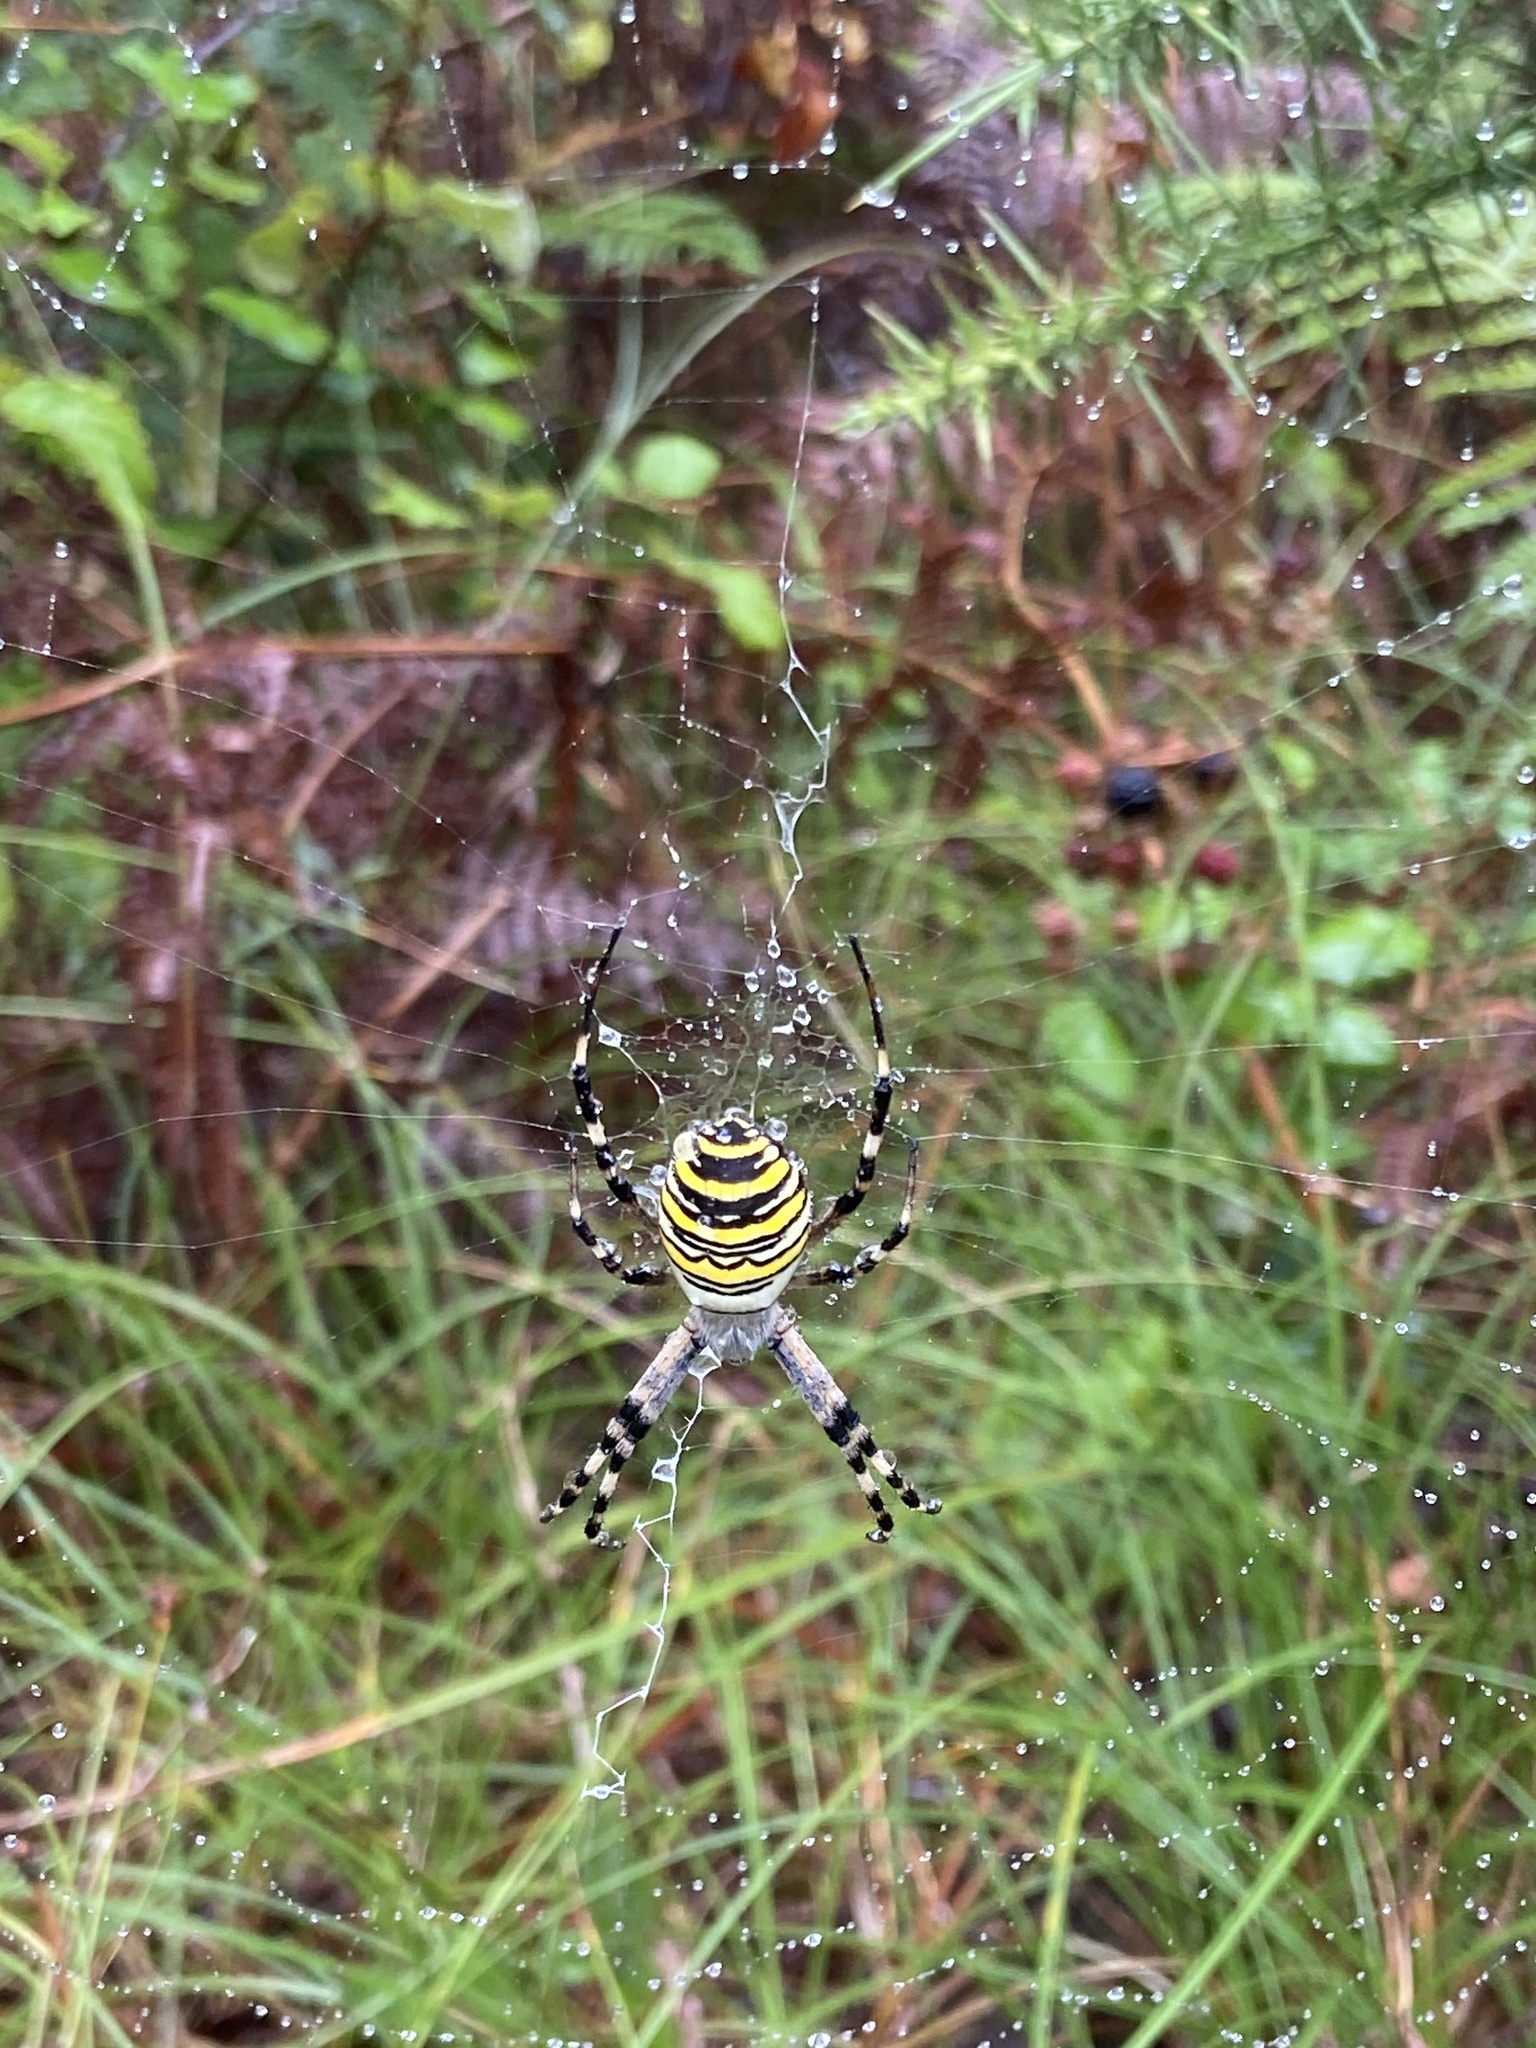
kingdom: Animalia
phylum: Arthropoda
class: Arachnida
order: Araneae
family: Araneidae
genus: Argiope
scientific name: Argiope bruennichi
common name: Wasp spider
